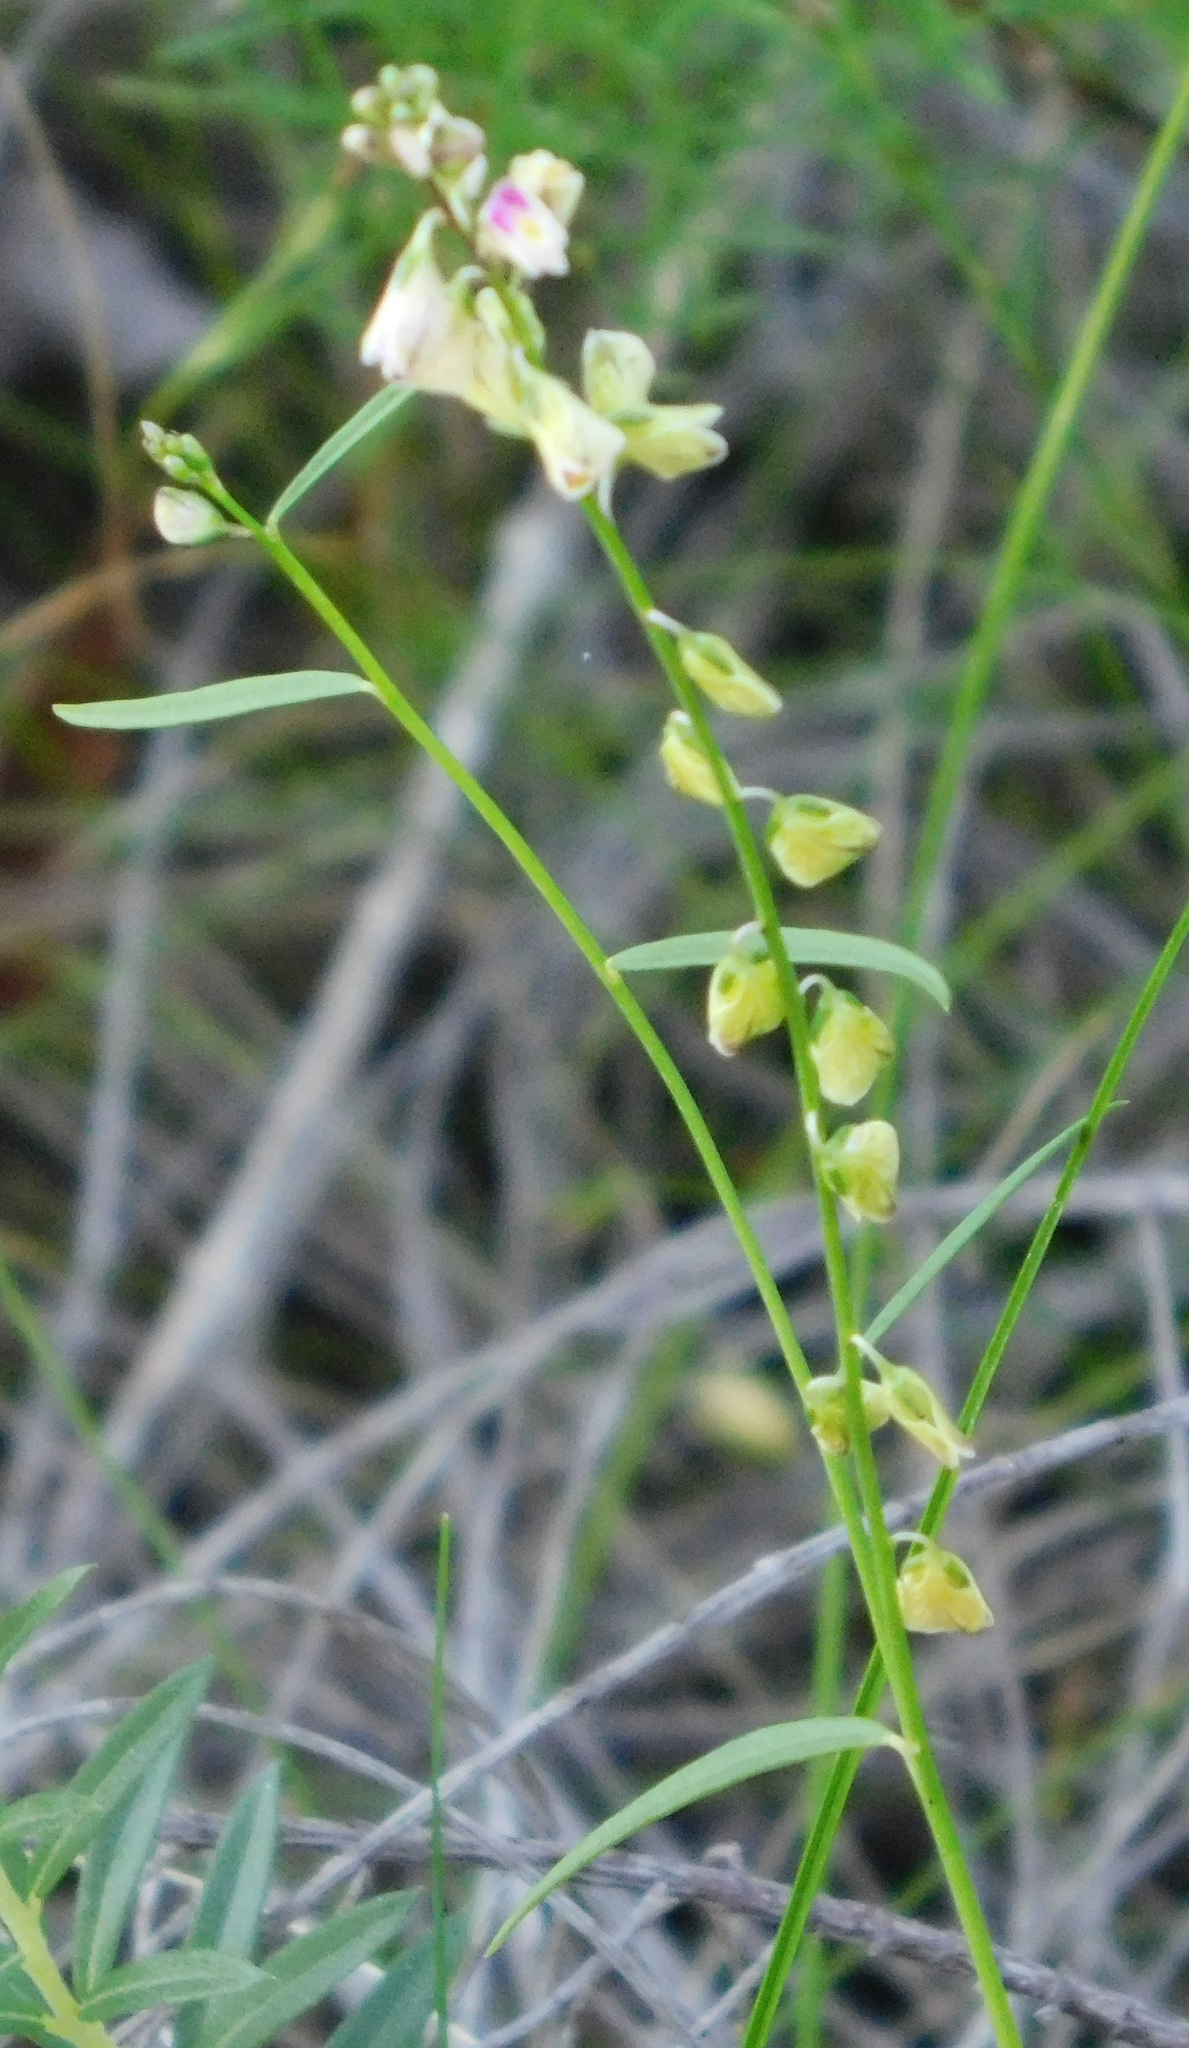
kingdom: Plantae
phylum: Tracheophyta
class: Magnoliopsida
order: Fabales
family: Polygalaceae
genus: Asemeia
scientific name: Asemeia grandiflora
